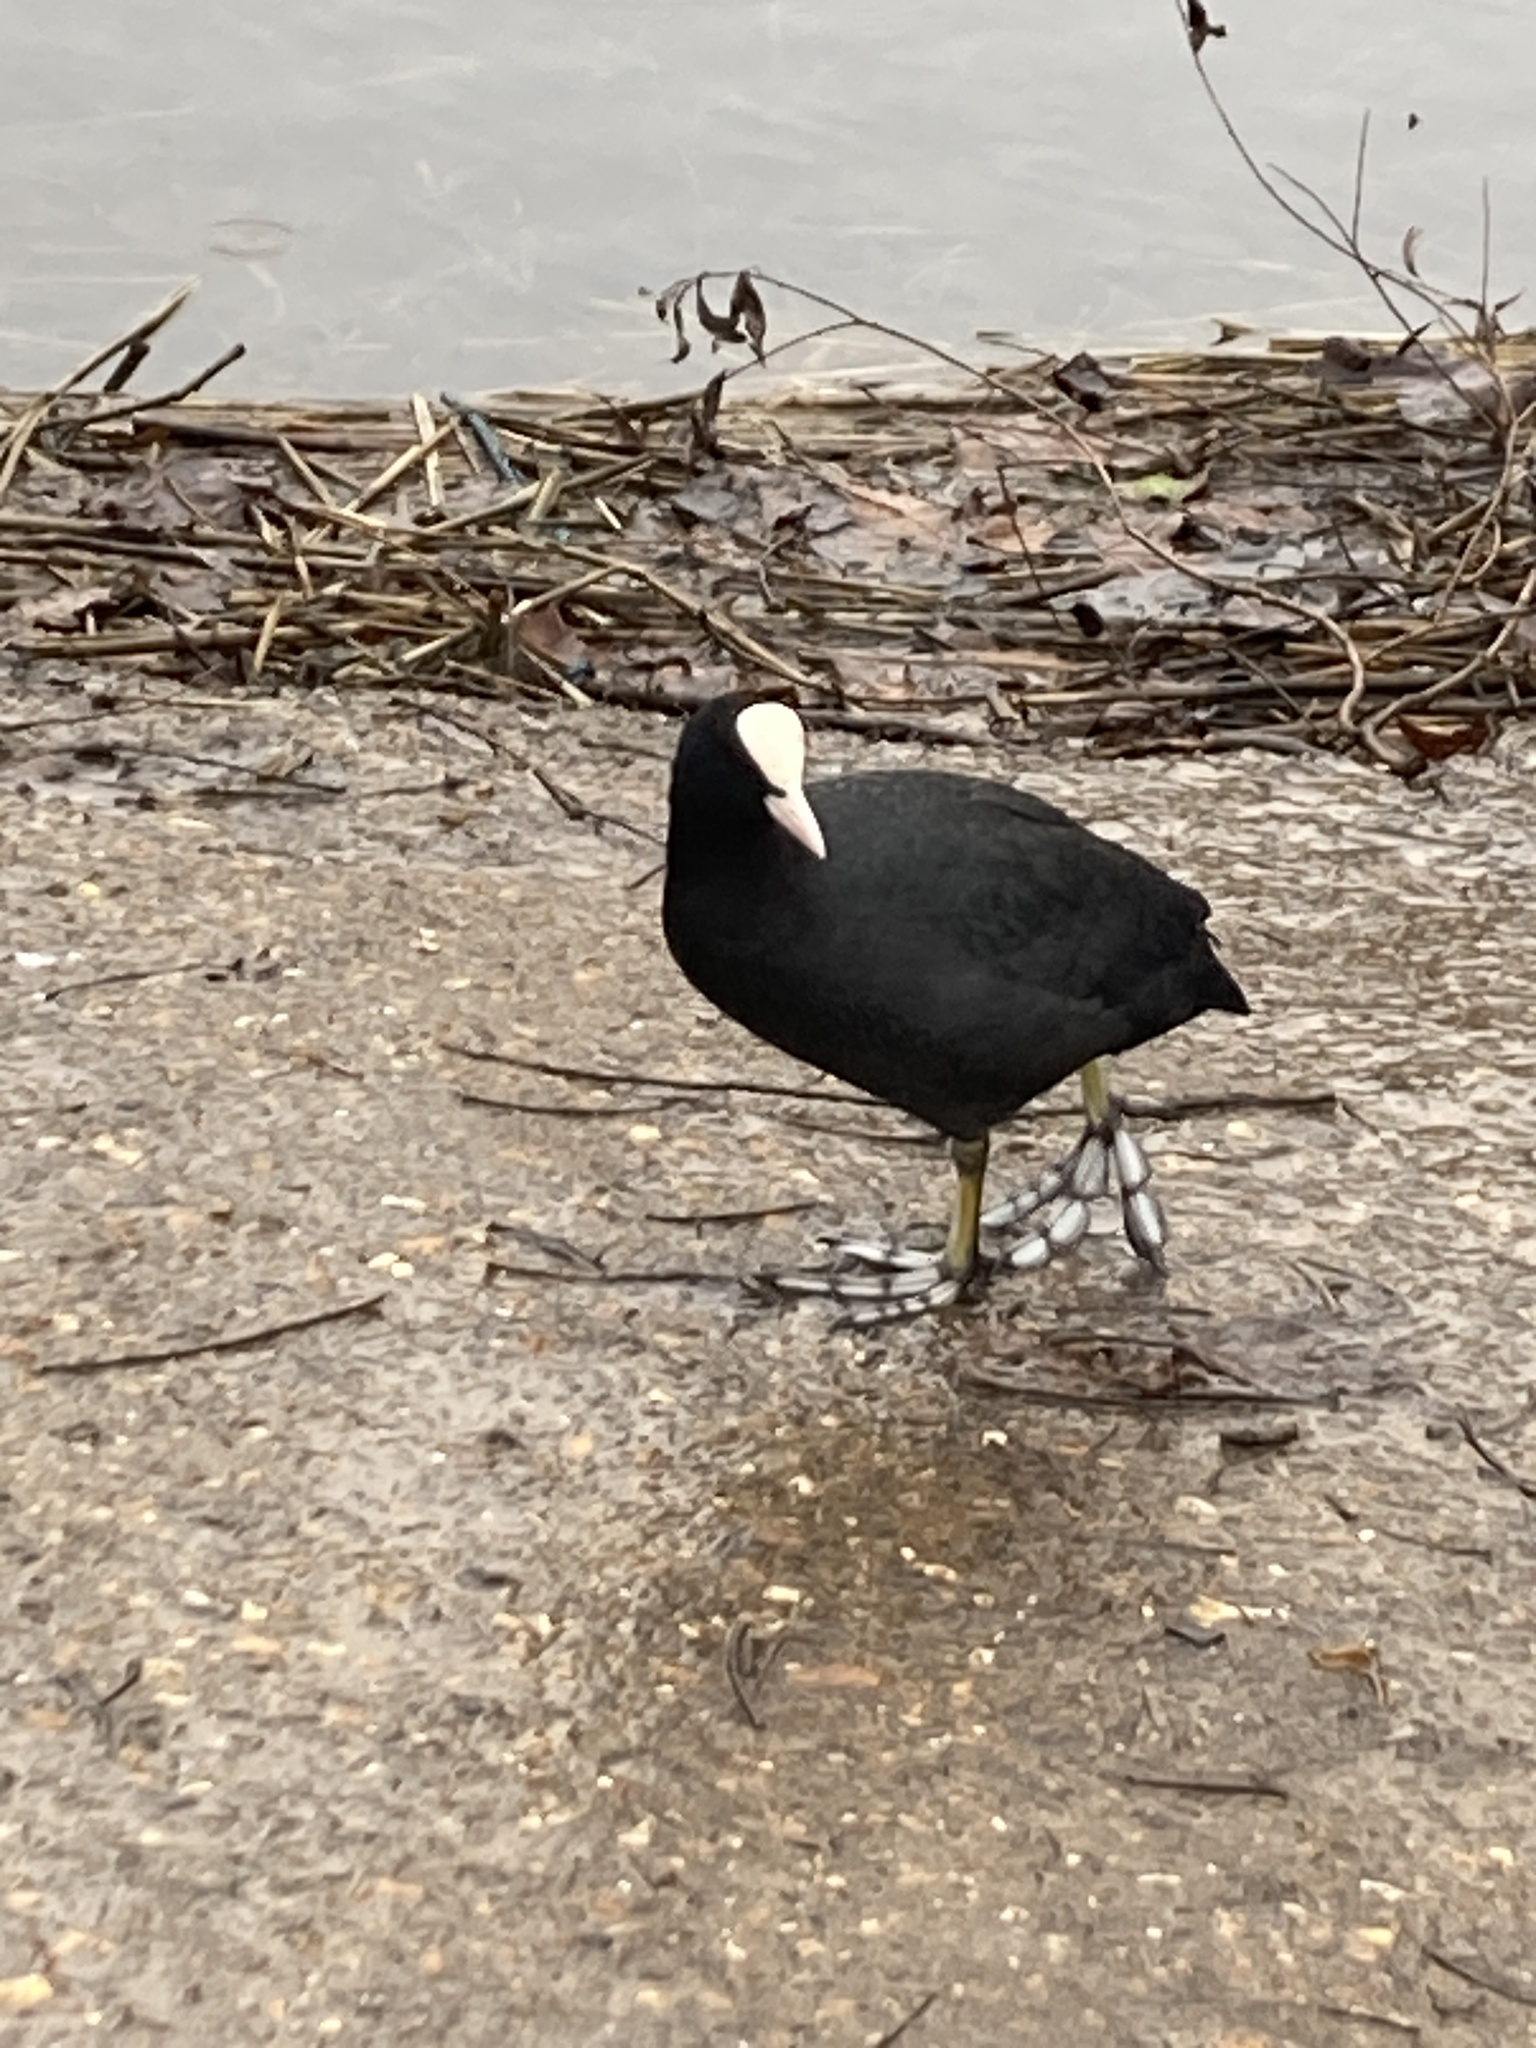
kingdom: Animalia
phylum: Chordata
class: Aves
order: Gruiformes
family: Rallidae
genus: Fulica
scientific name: Fulica atra
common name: Eurasian coot
